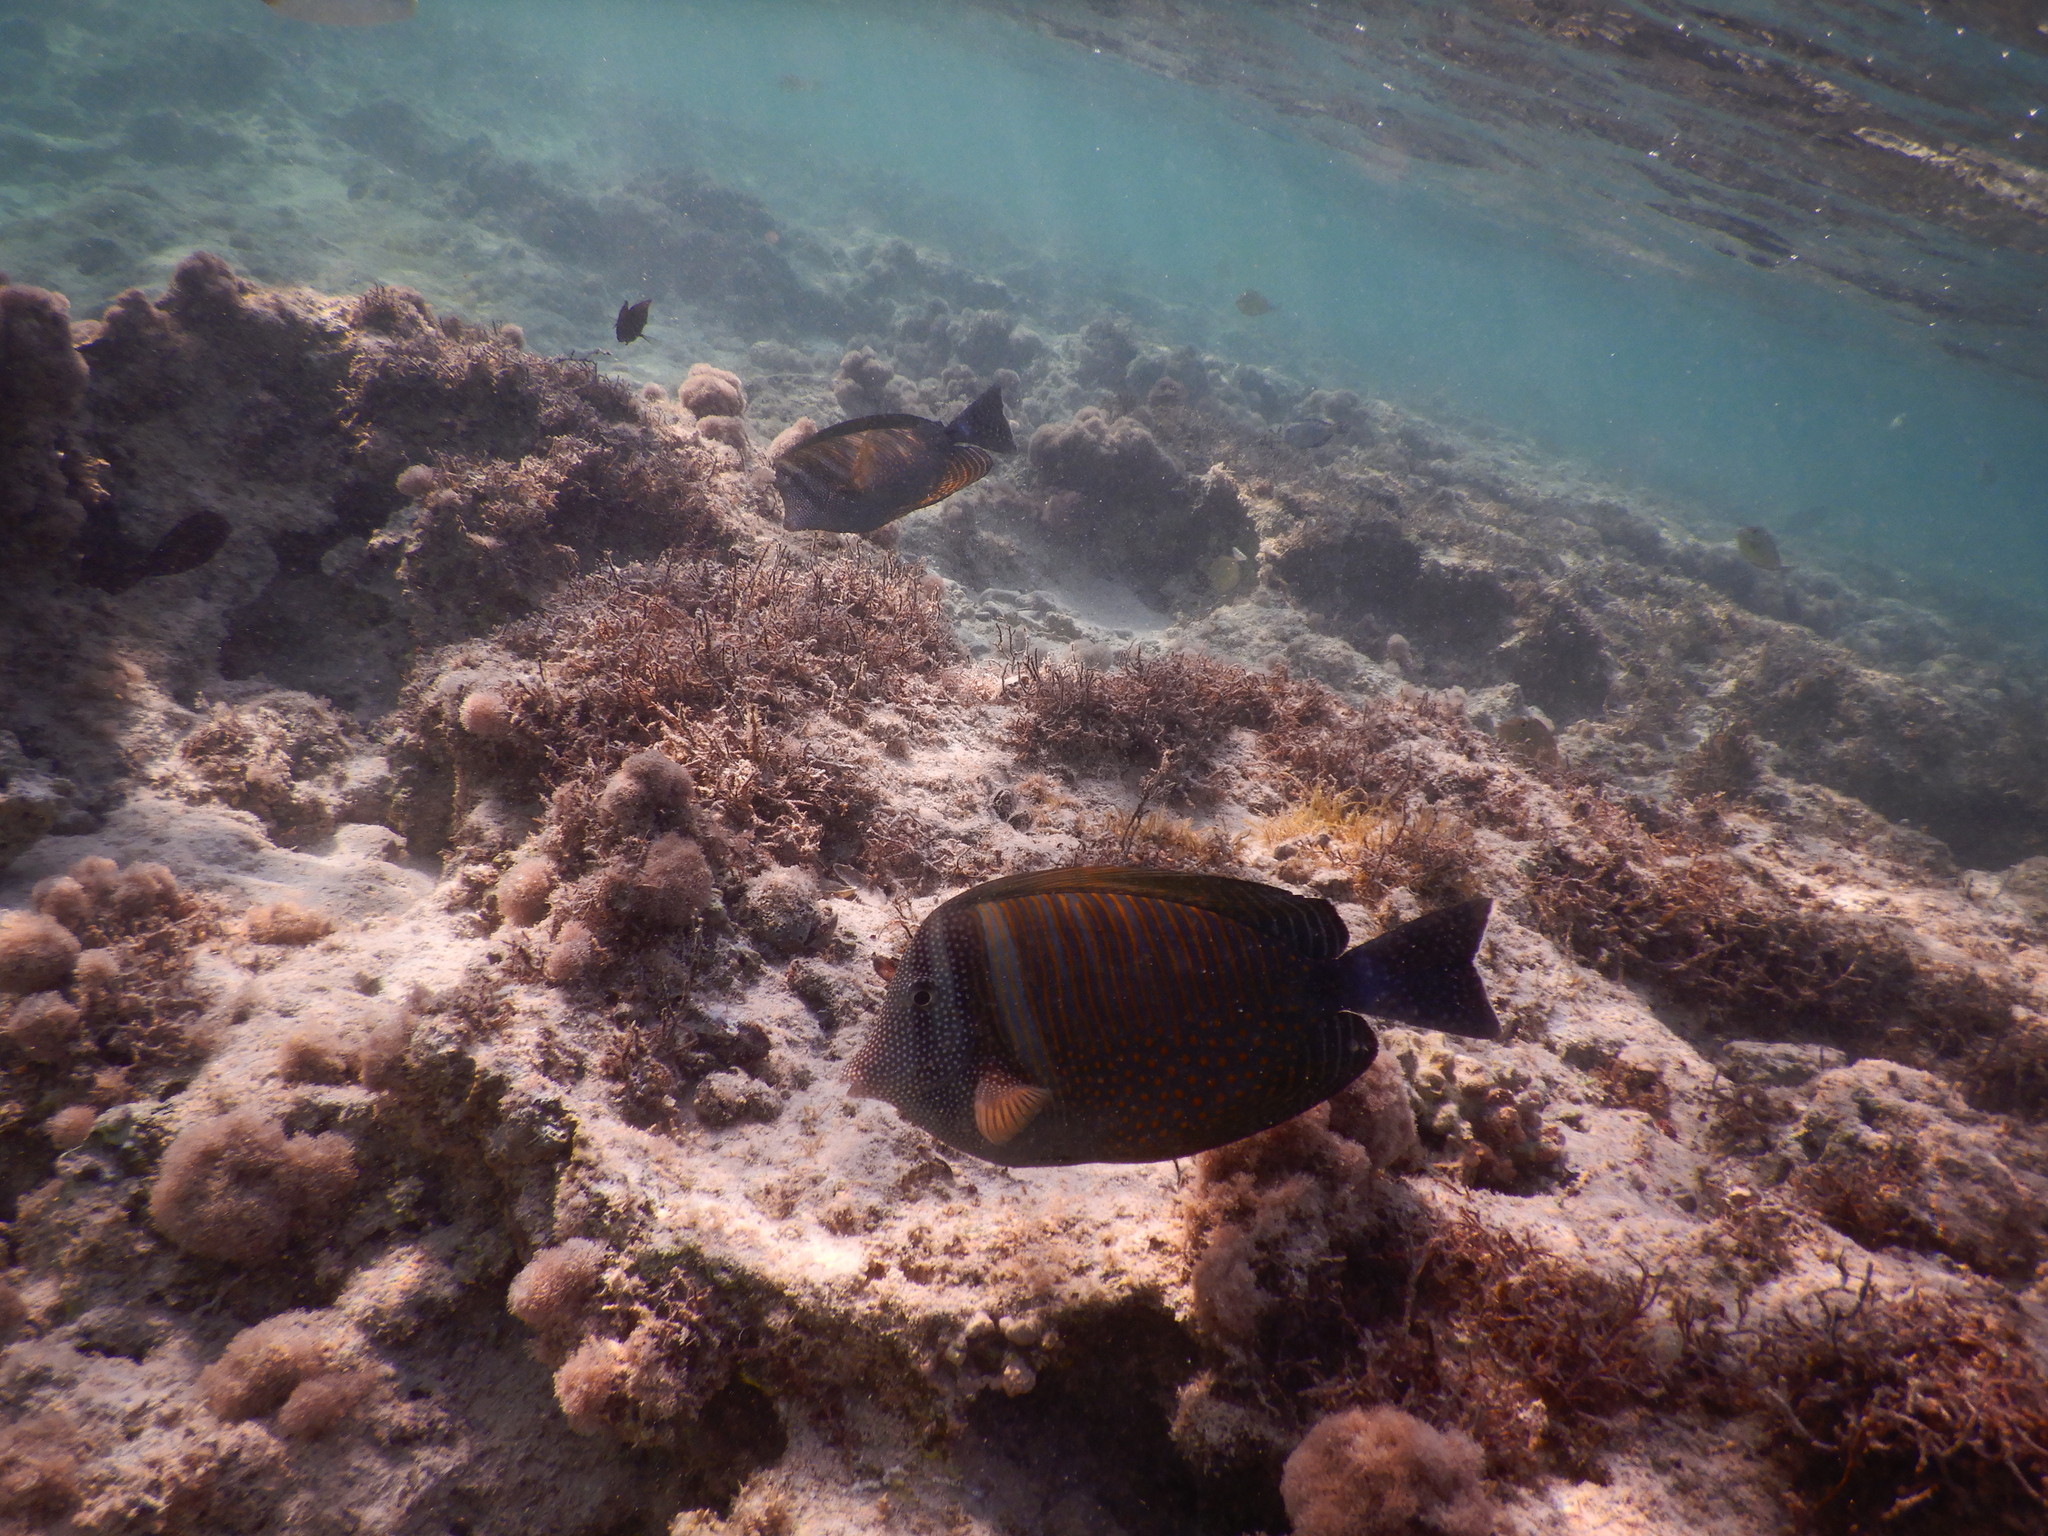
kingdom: Animalia
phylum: Chordata
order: Perciformes
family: Acanthuridae
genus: Zebrasoma
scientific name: Zebrasoma desjardinii
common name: Desjardin's sailfin tang
